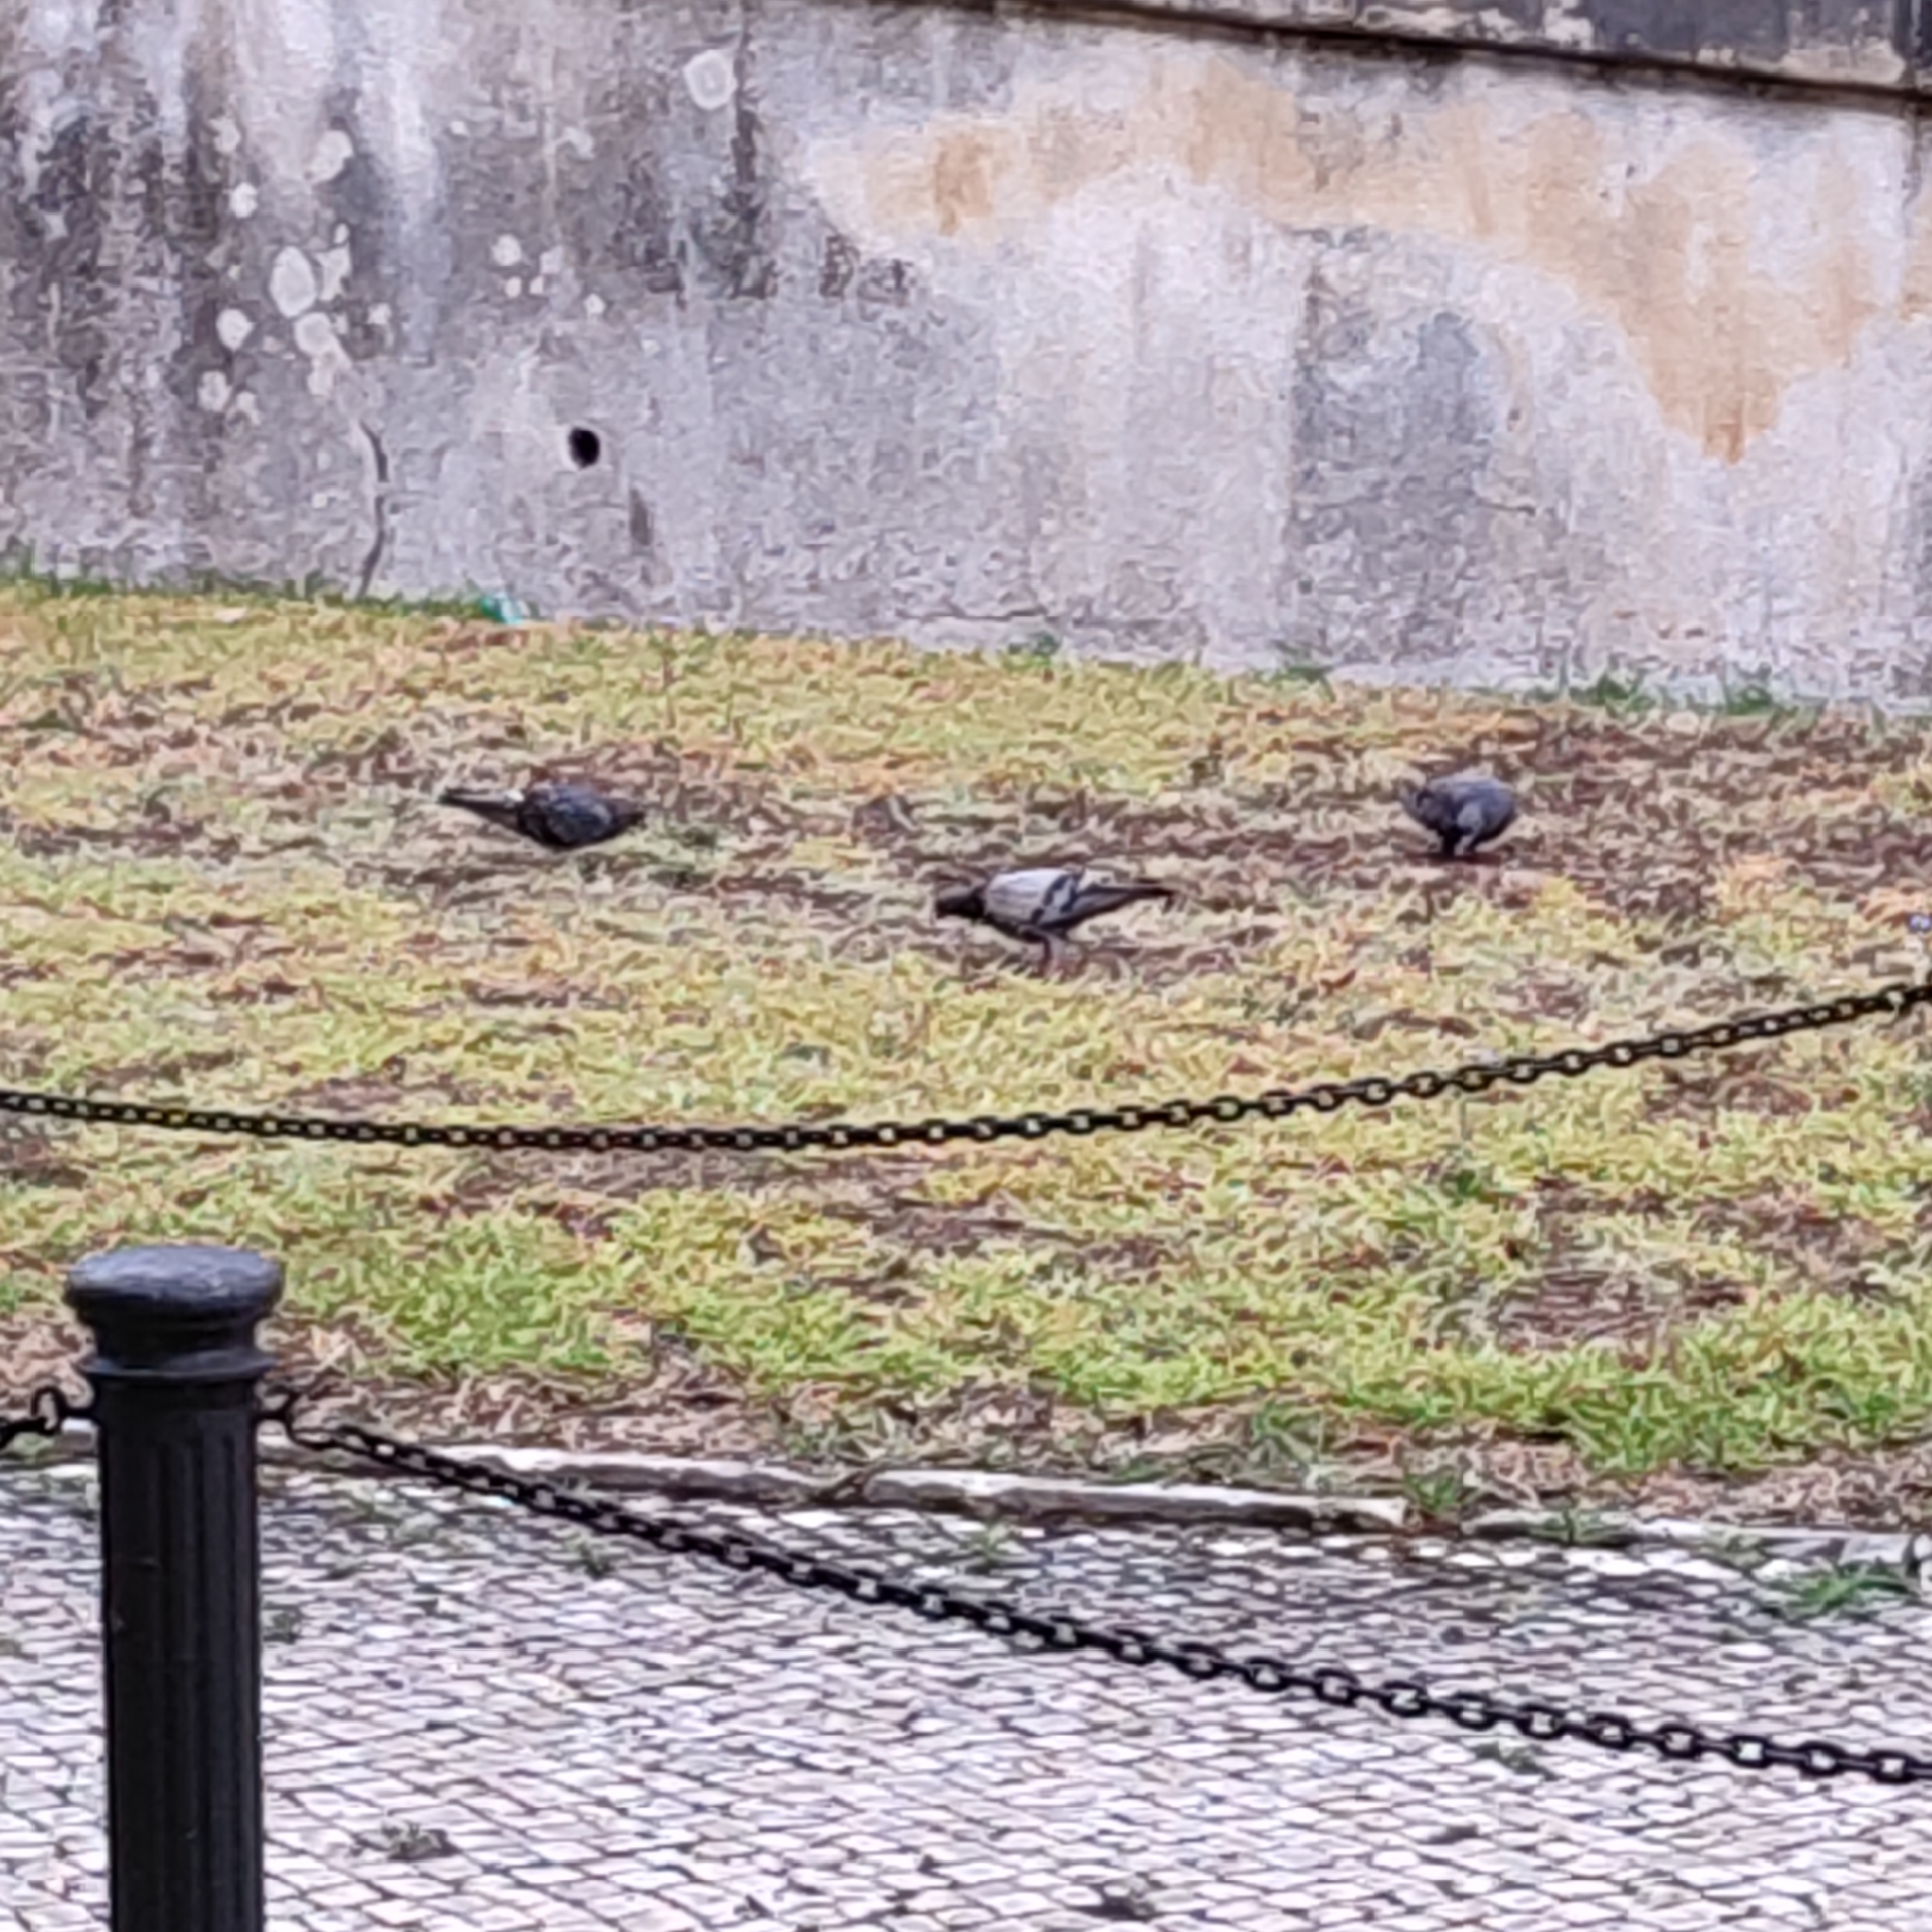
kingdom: Animalia
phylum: Chordata
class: Aves
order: Columbiformes
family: Columbidae
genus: Columba
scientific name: Columba livia
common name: Rock pigeon
